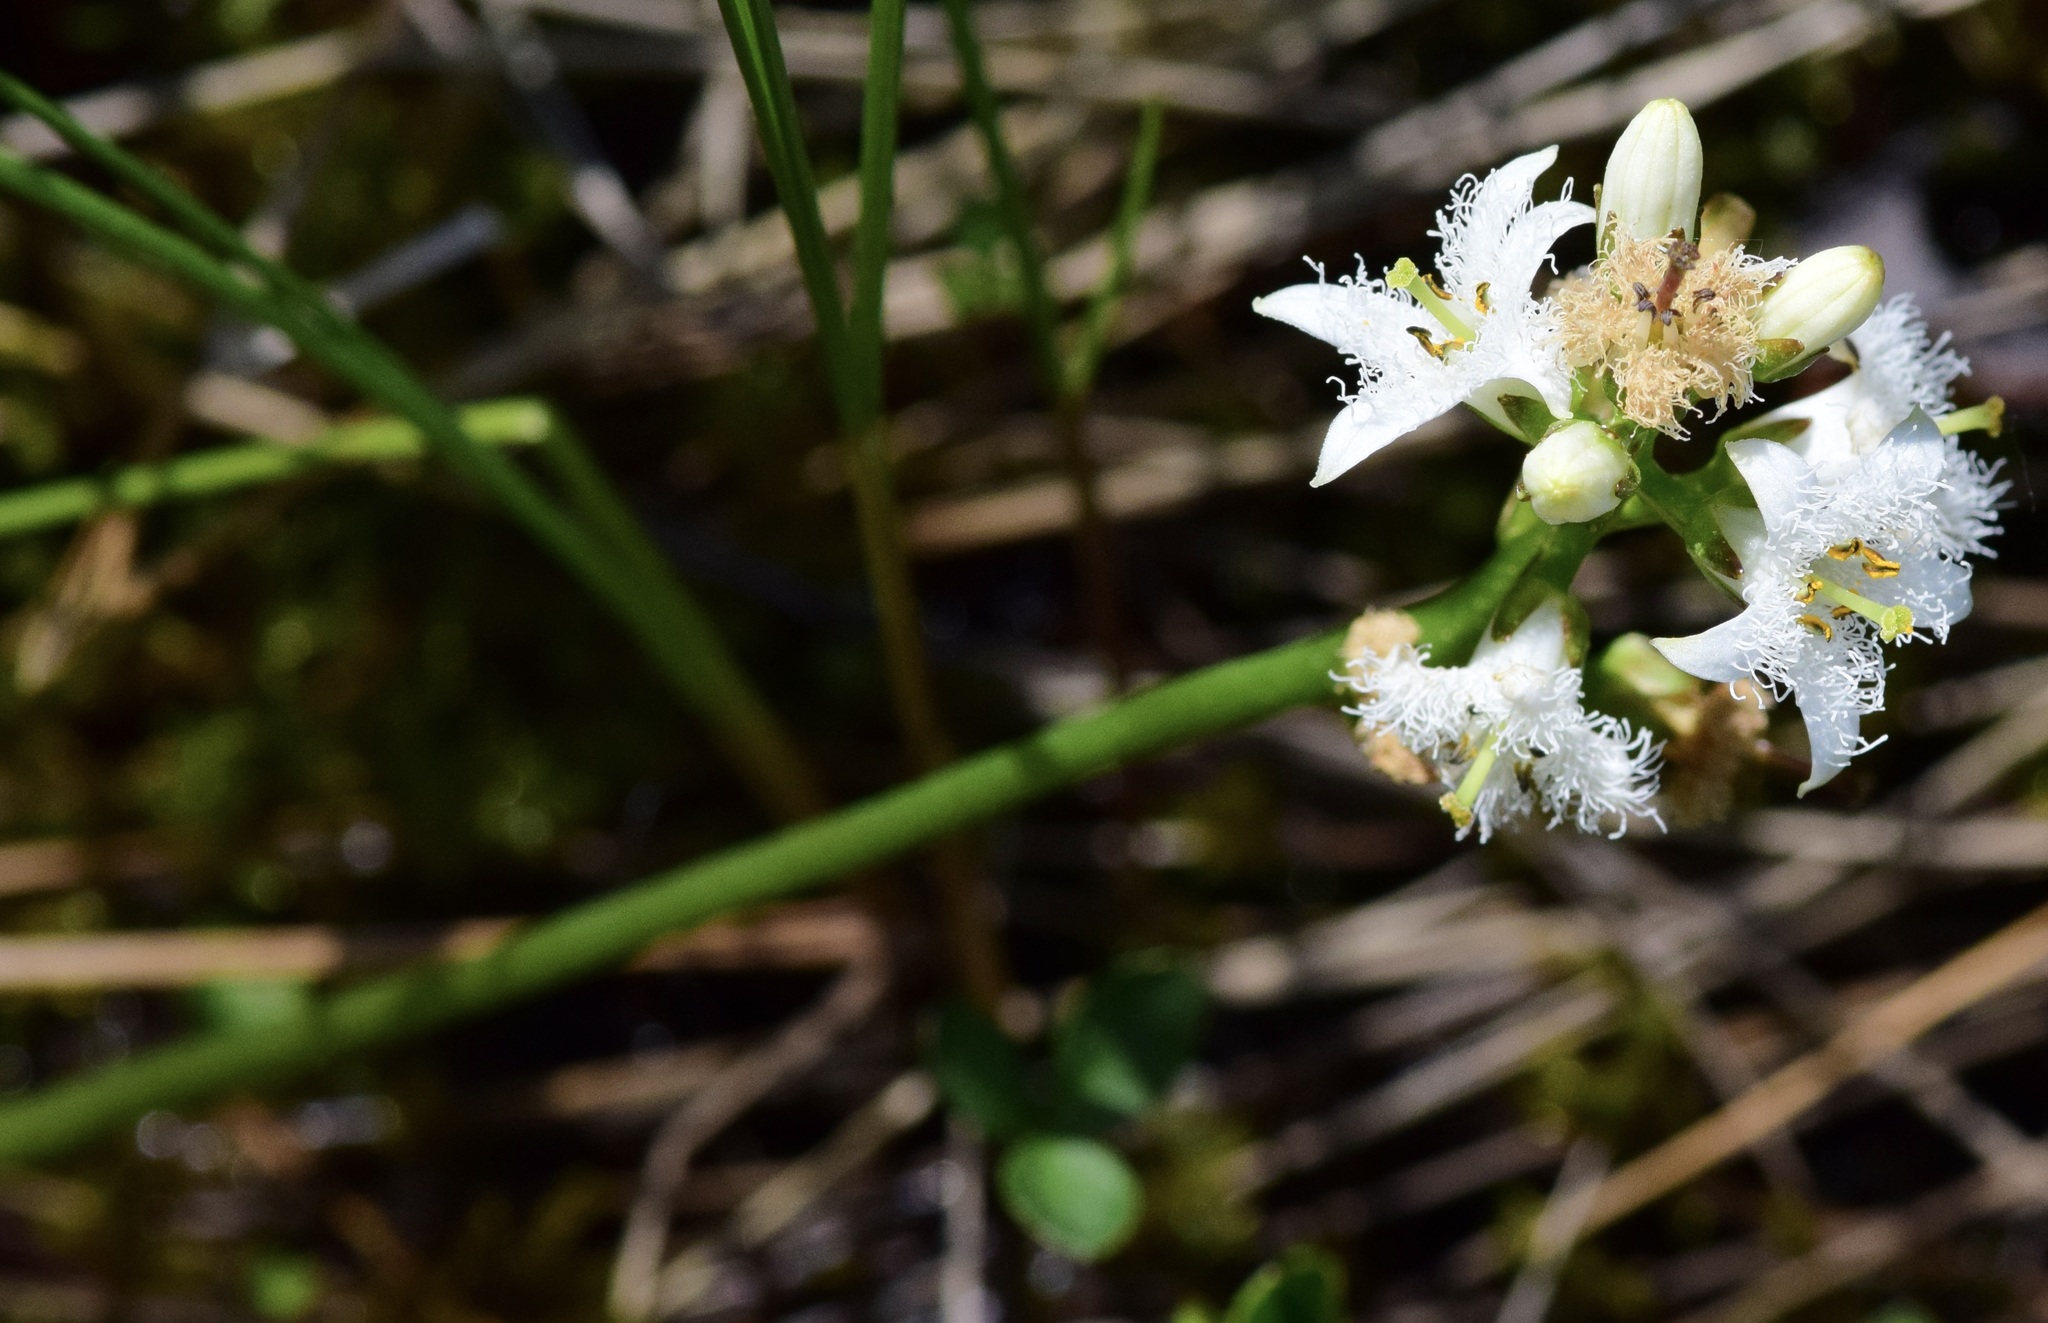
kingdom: Plantae
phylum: Tracheophyta
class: Magnoliopsida
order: Asterales
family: Menyanthaceae
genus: Menyanthes
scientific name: Menyanthes trifoliata
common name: Bogbean
